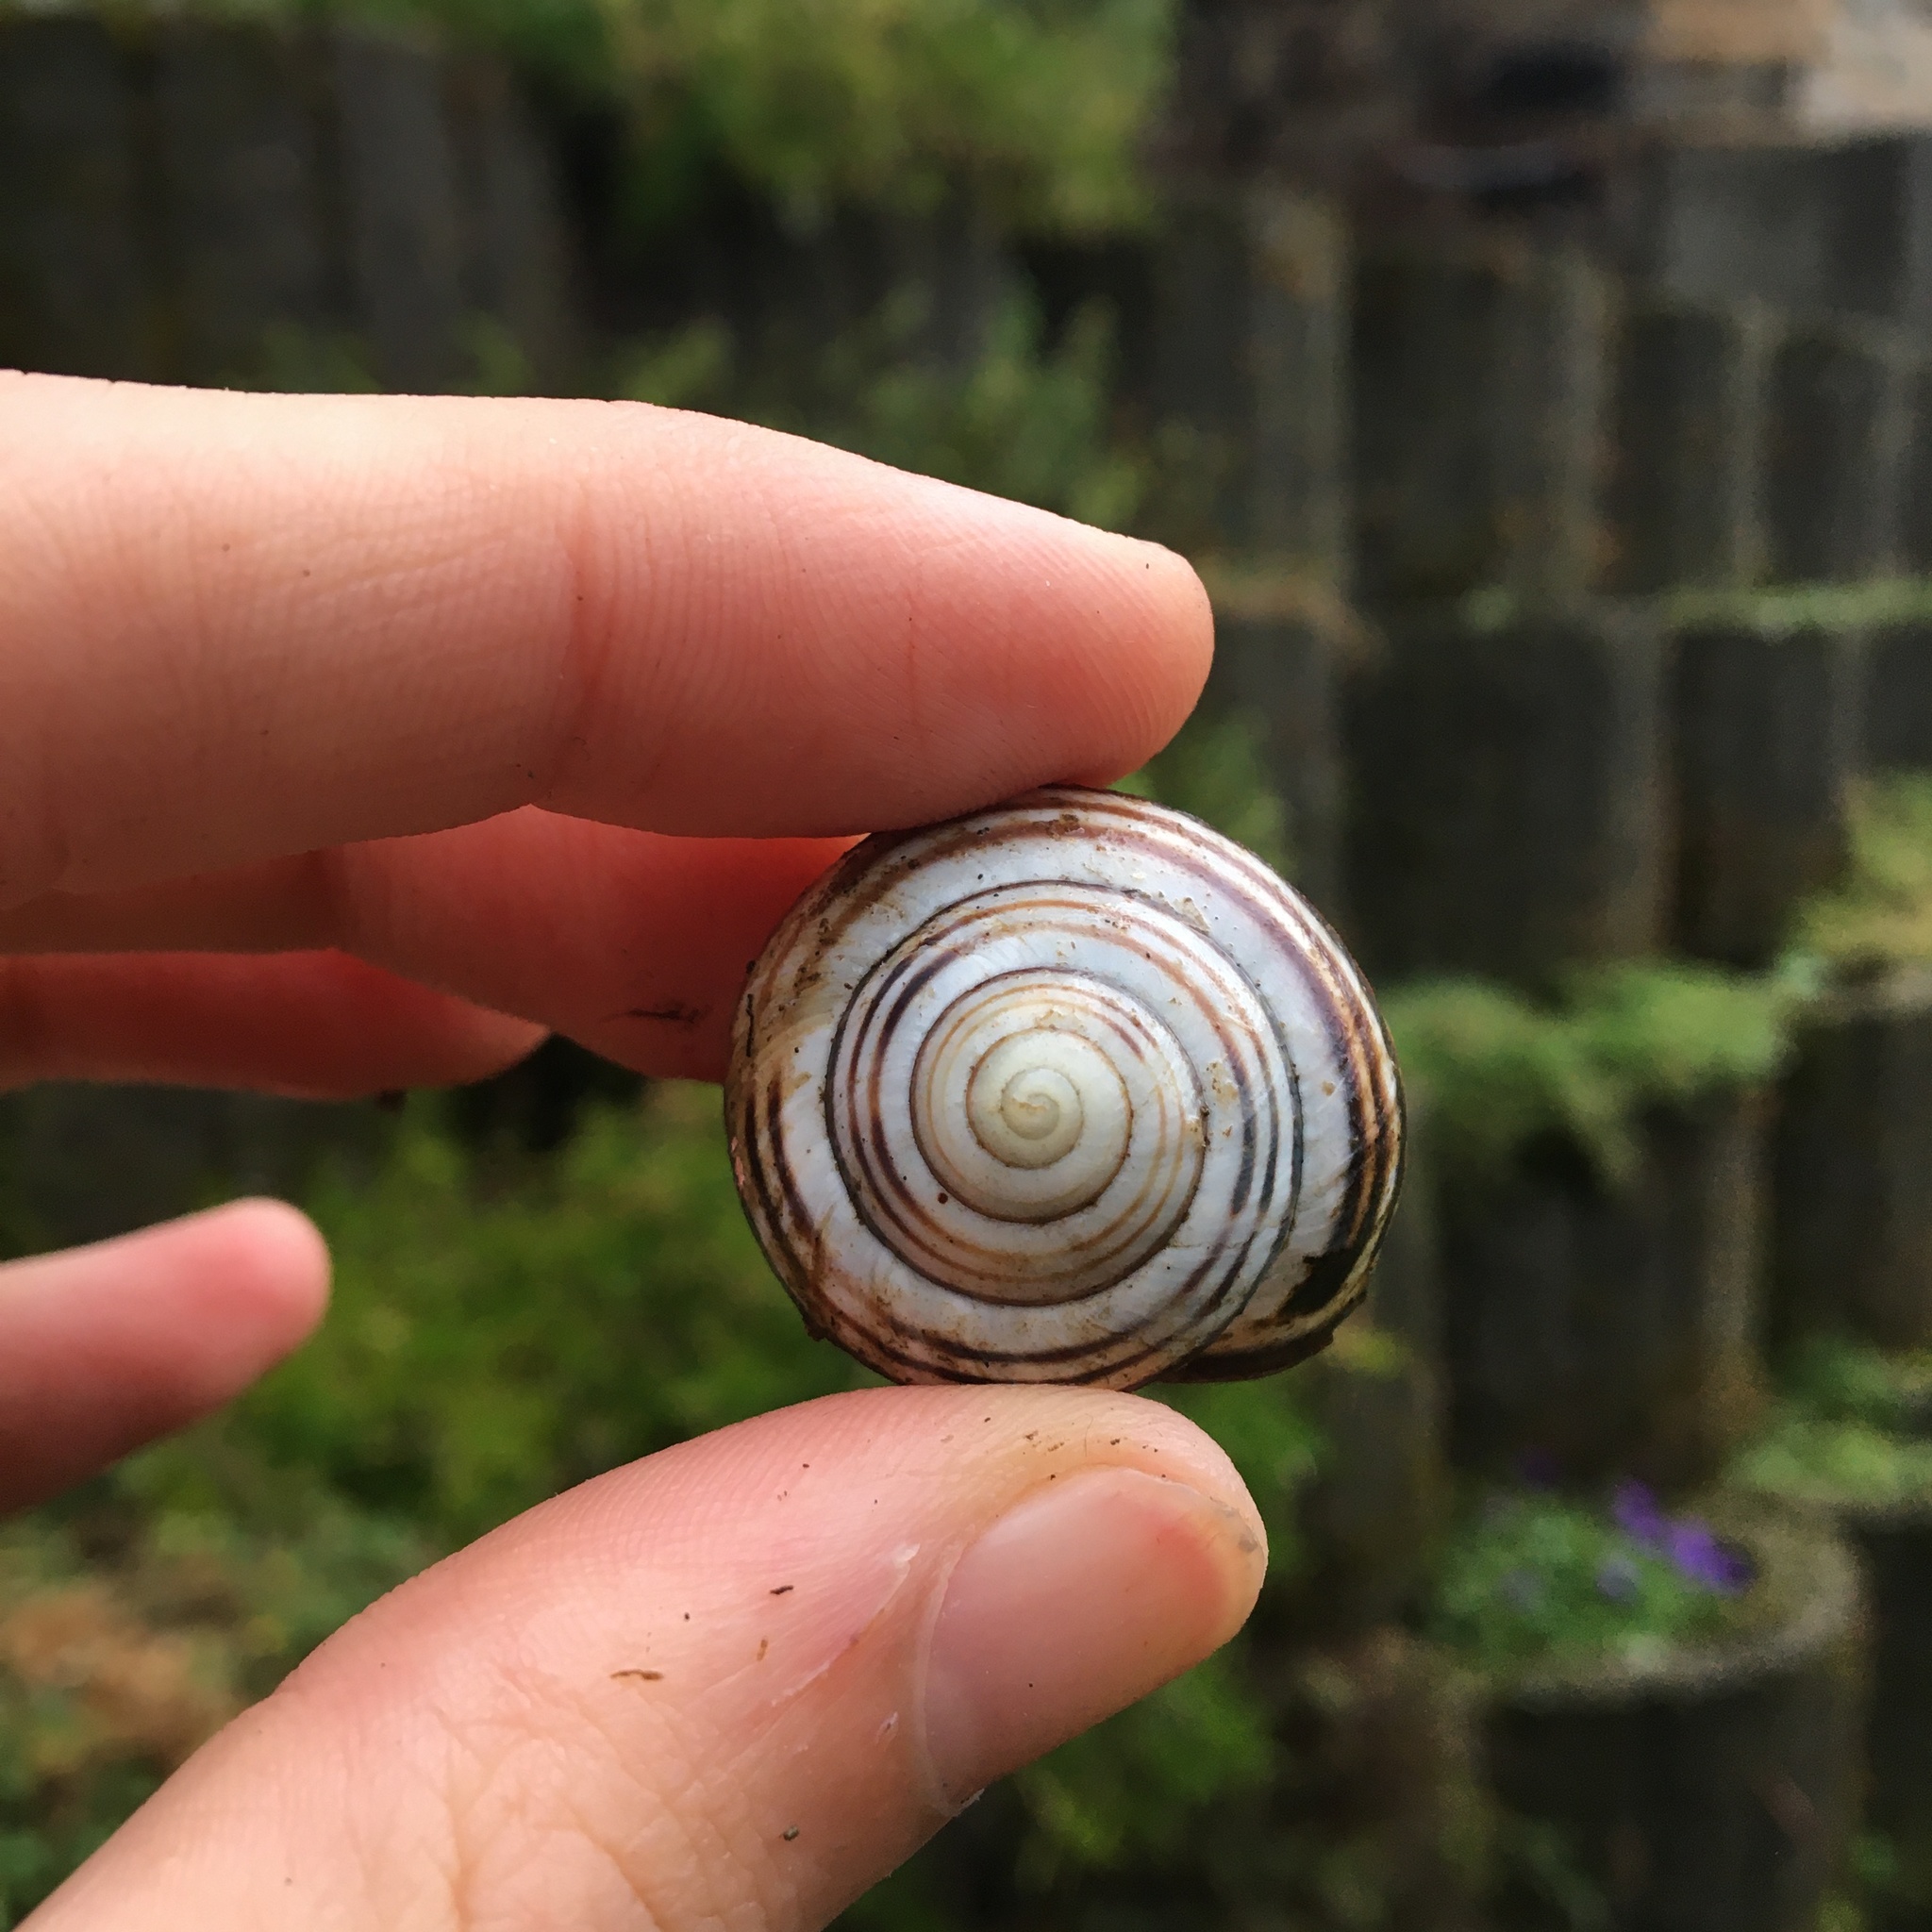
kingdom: Animalia
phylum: Mollusca
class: Gastropoda
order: Stylommatophora
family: Helicidae
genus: Cepaea
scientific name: Cepaea nemoralis
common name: Grovesnail
